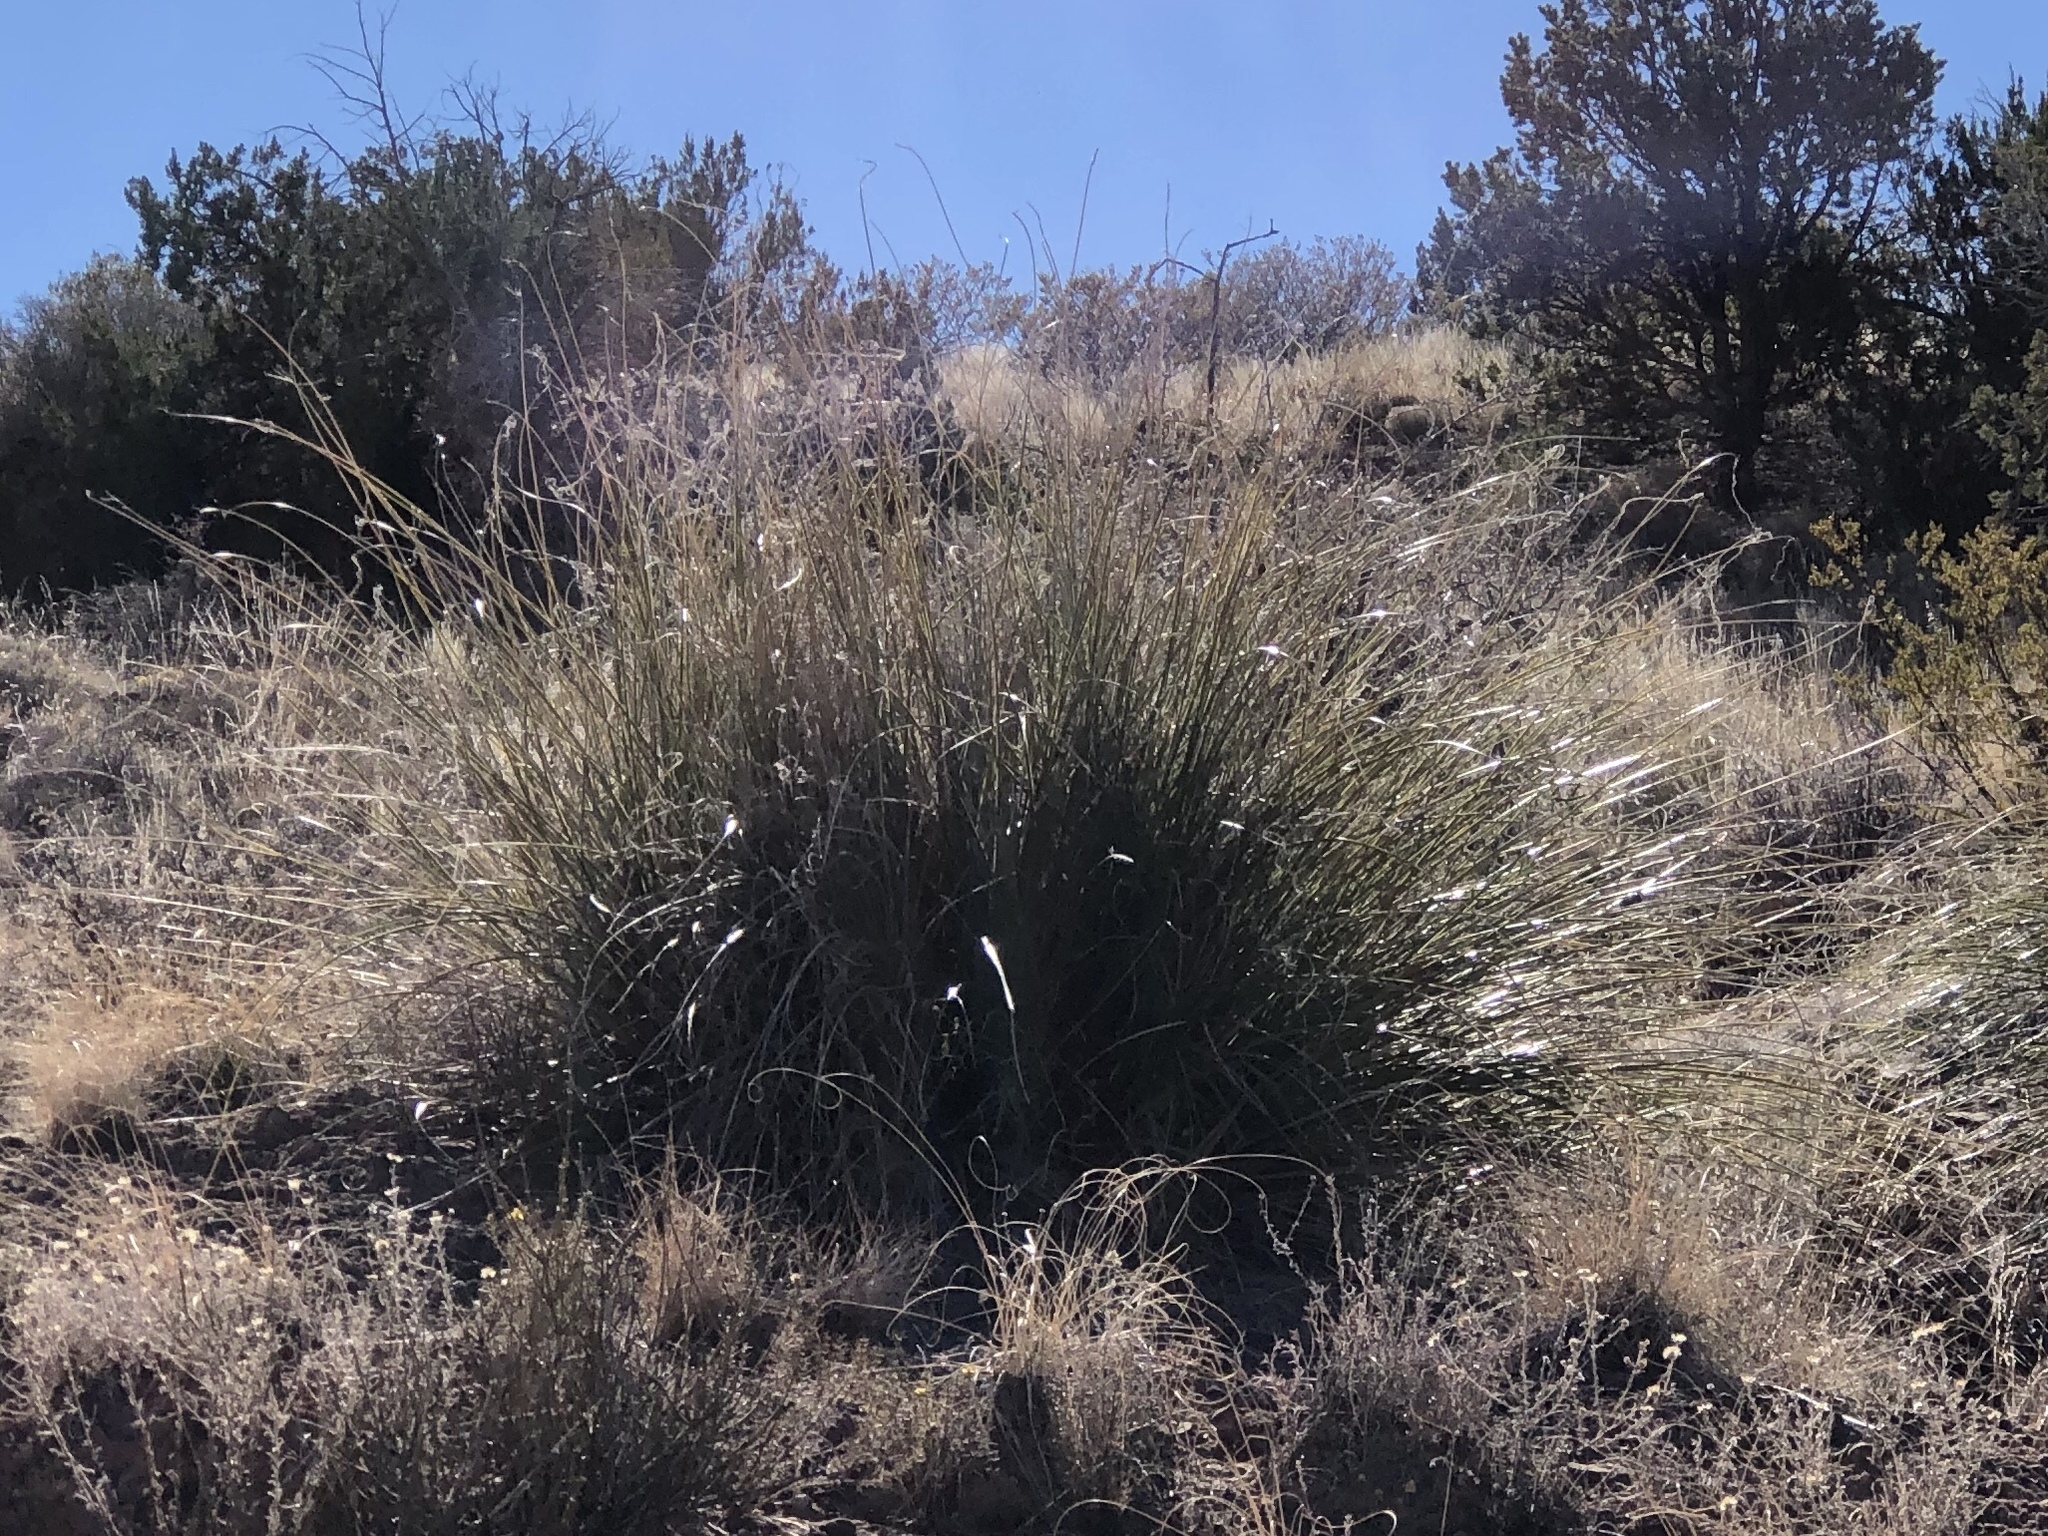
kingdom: Plantae
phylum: Tracheophyta
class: Liliopsida
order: Asparagales
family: Asparagaceae
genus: Nolina
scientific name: Nolina texana
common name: Texas sacahuiste
